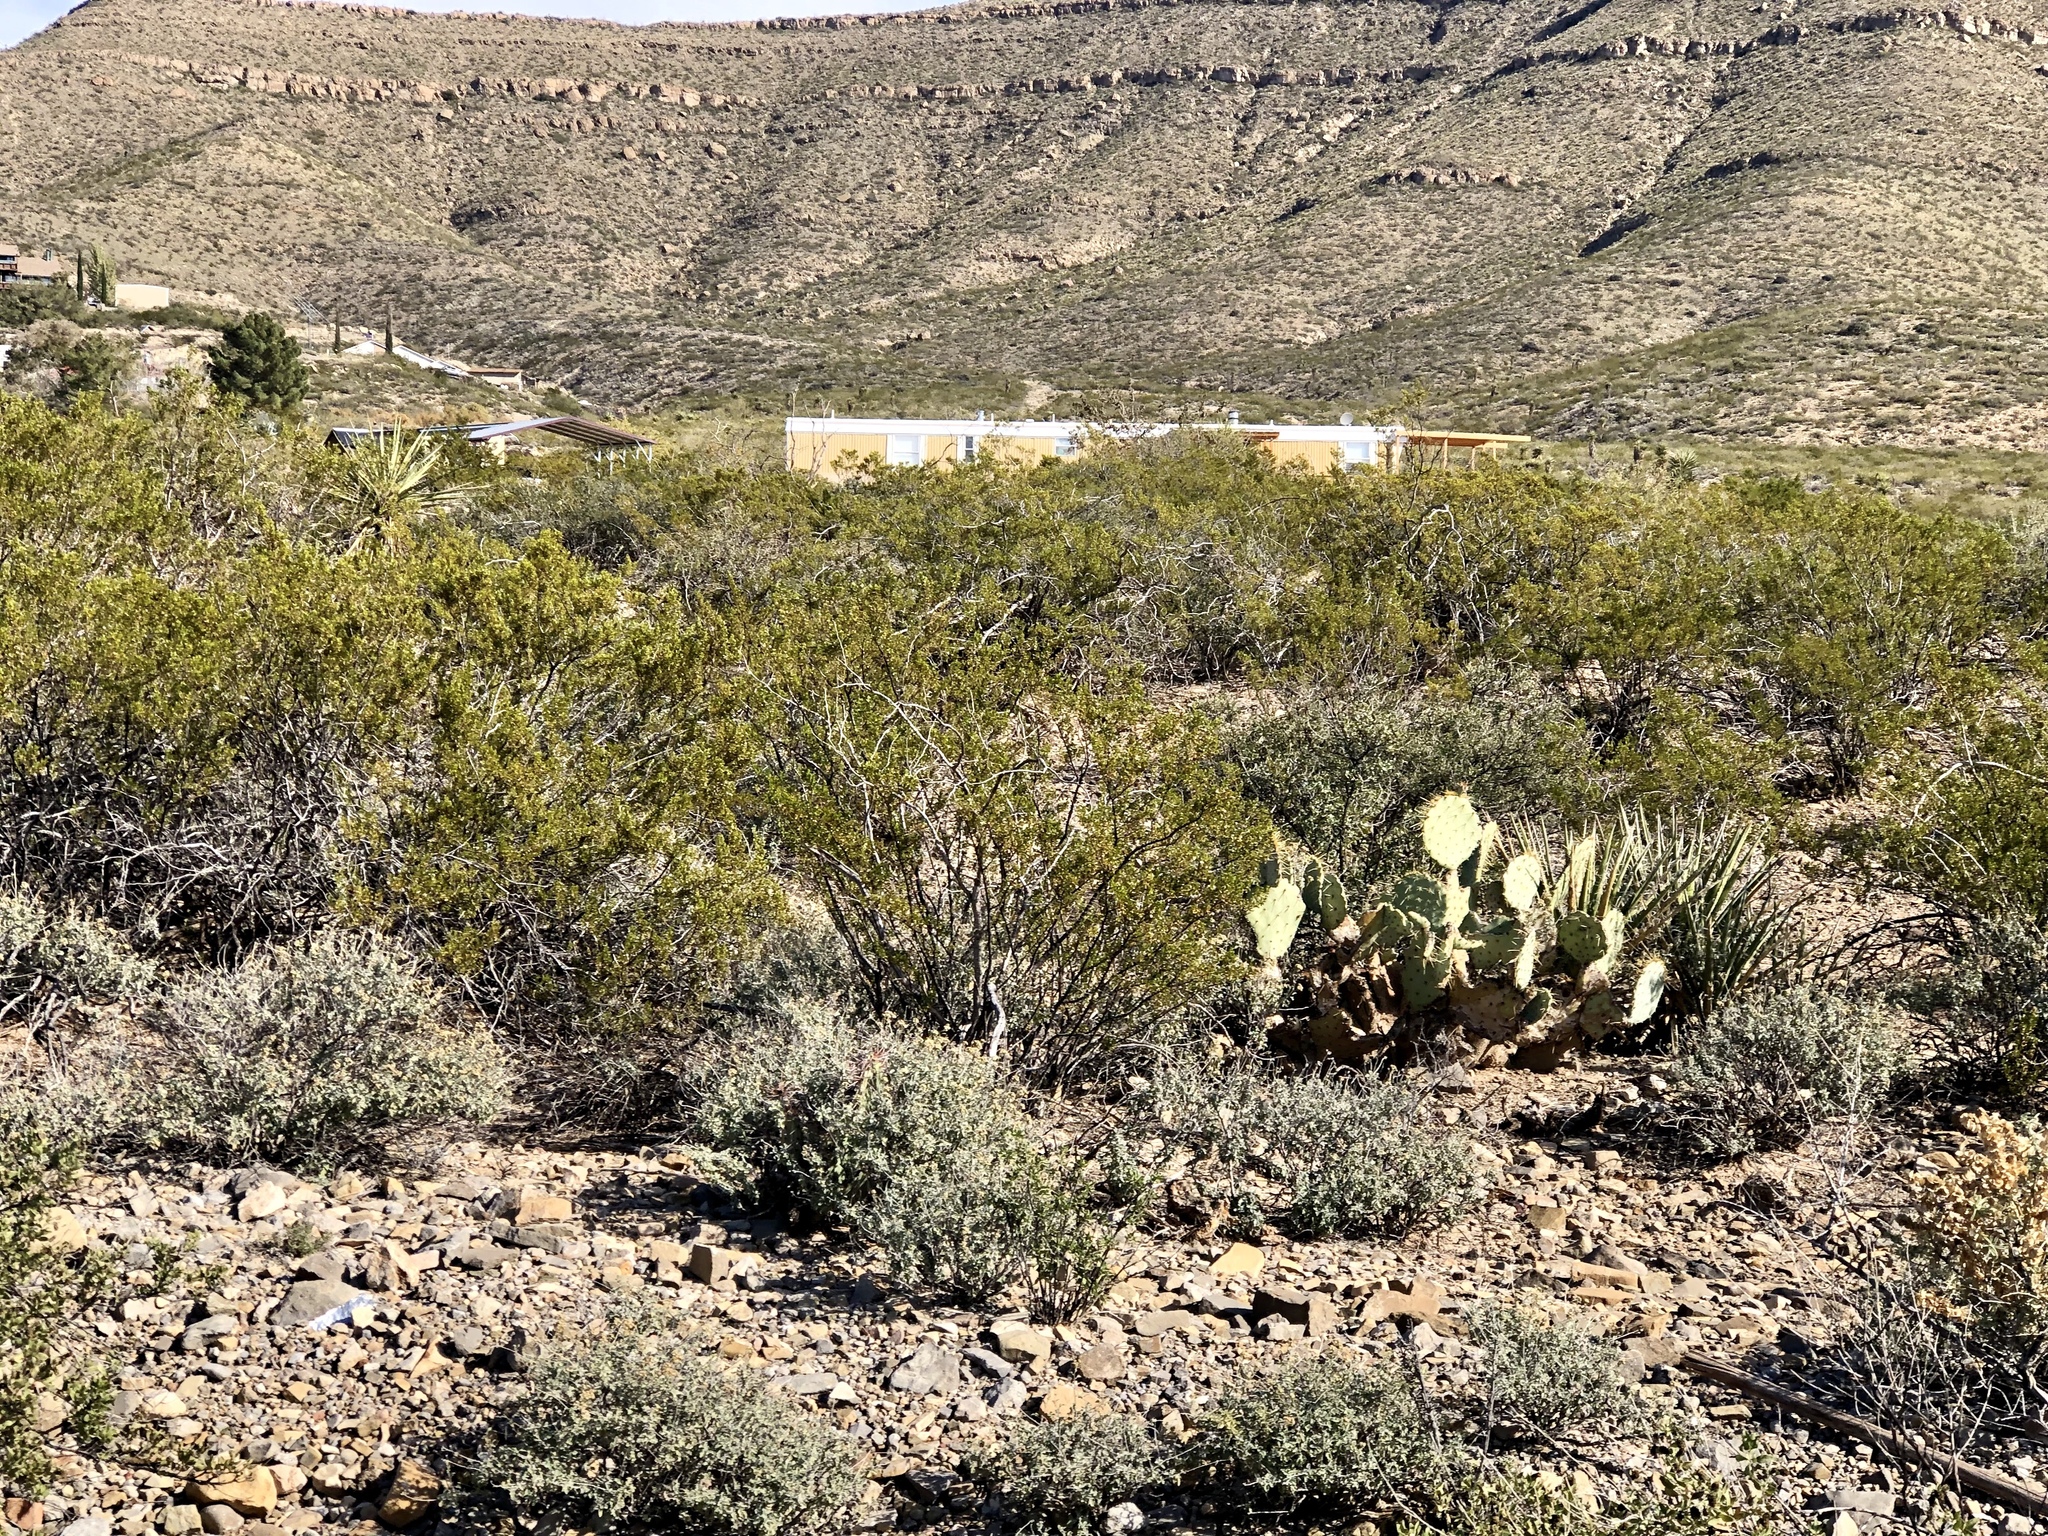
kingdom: Plantae
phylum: Tracheophyta
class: Magnoliopsida
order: Zygophyllales
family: Zygophyllaceae
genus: Larrea
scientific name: Larrea tridentata
